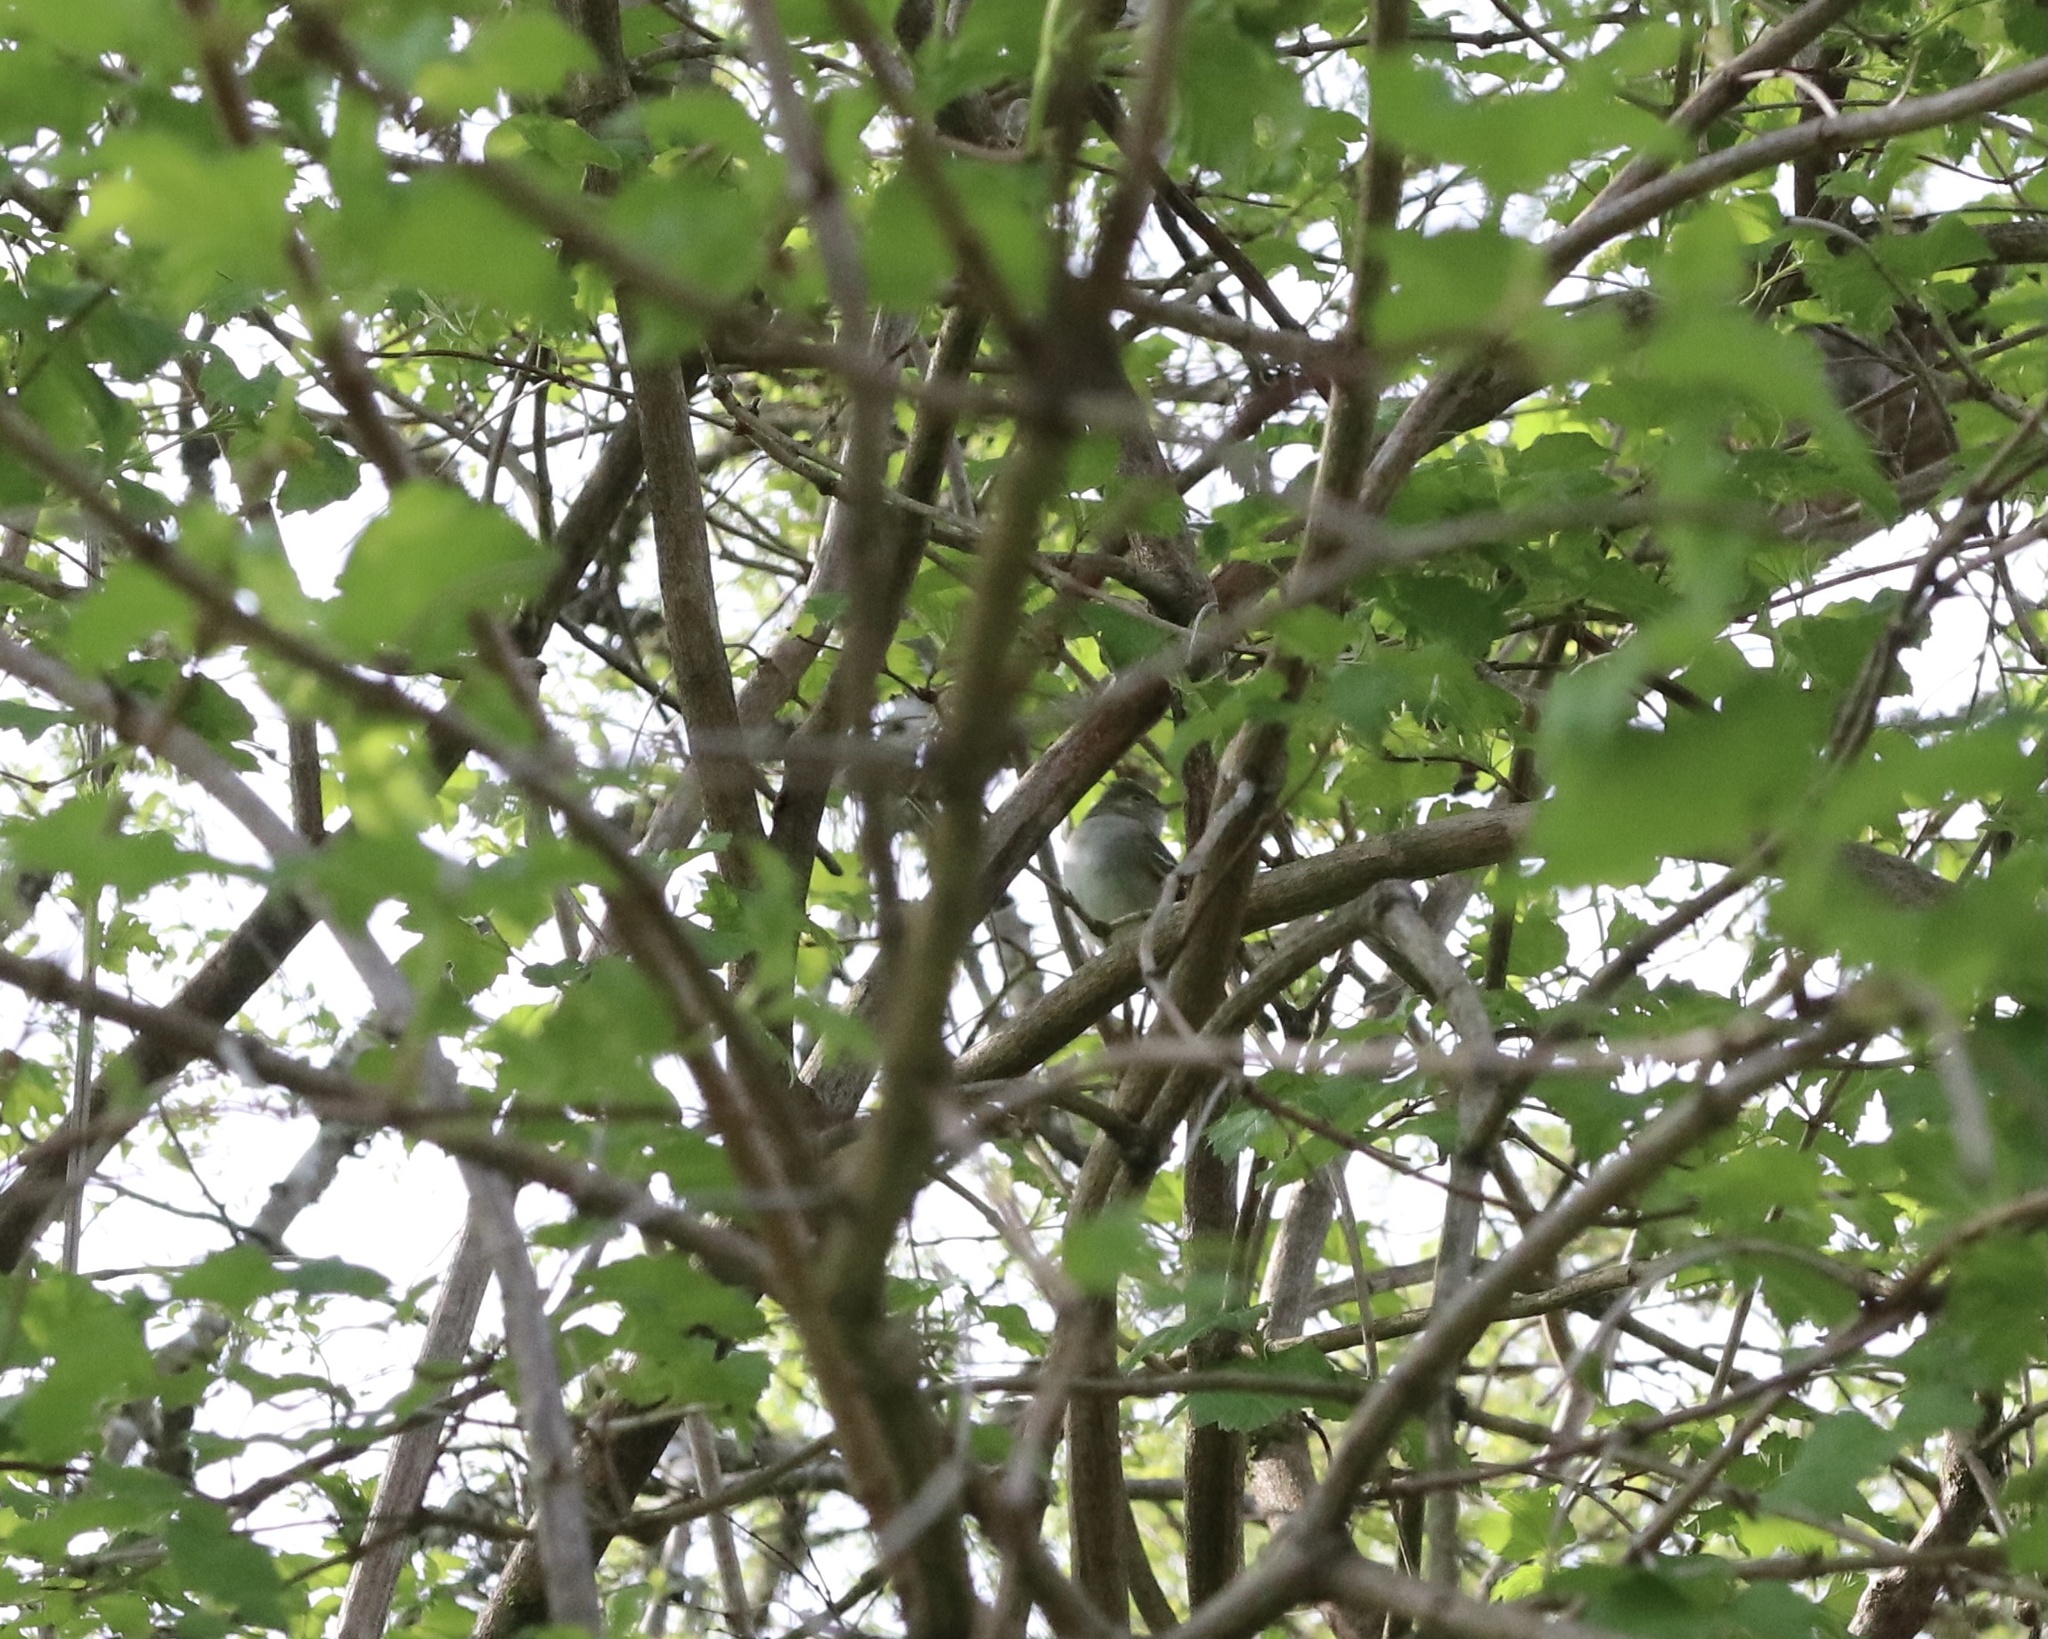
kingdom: Animalia
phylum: Chordata
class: Aves
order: Passeriformes
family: Tyrannidae
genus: Elaenia
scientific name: Elaenia albiceps
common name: White-crested elaenia
